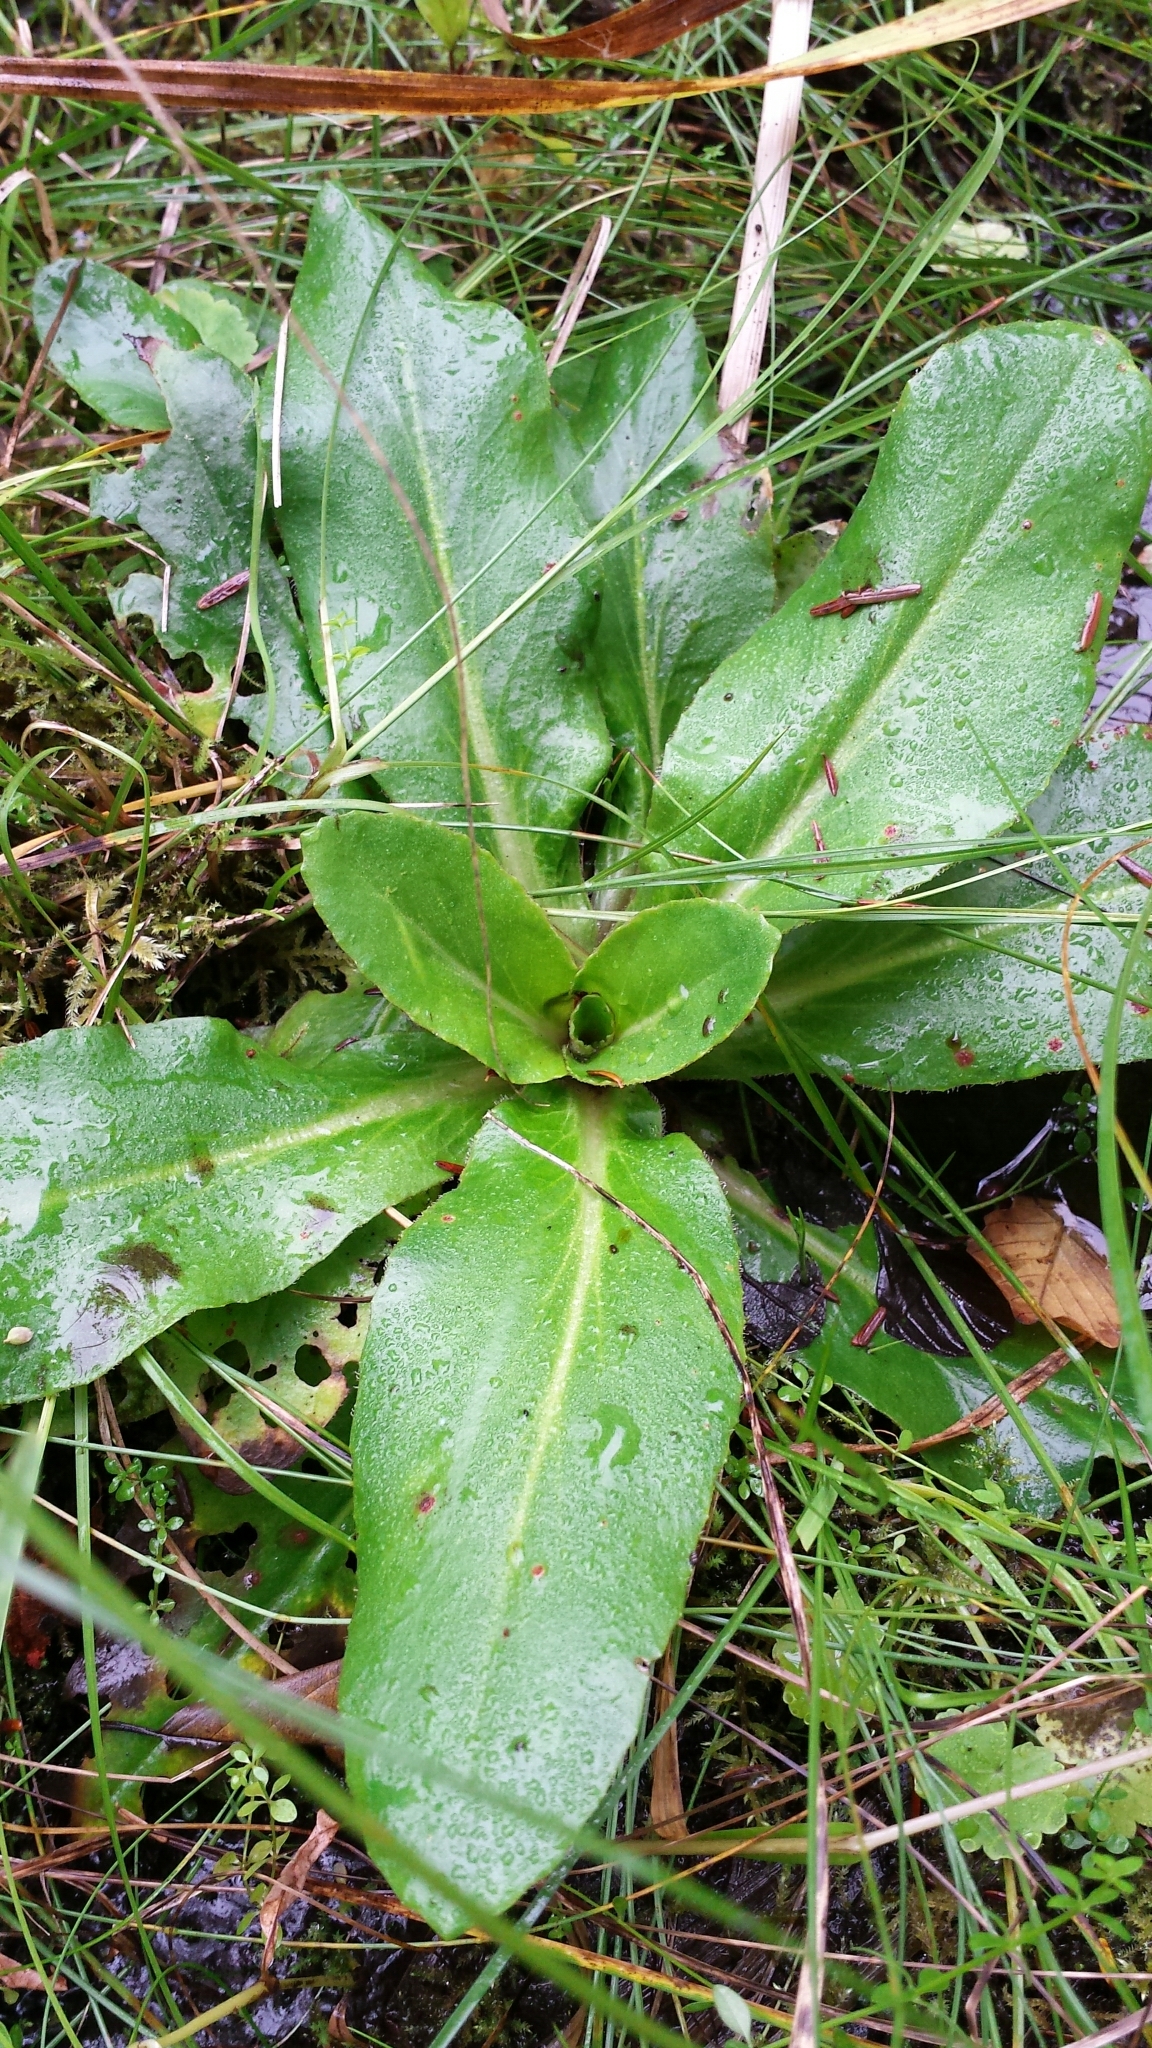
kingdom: Plantae
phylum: Tracheophyta
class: Magnoliopsida
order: Saxifragales
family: Saxifragaceae
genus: Micranthes
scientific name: Micranthes pensylvanica
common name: Marsh saxifrage
